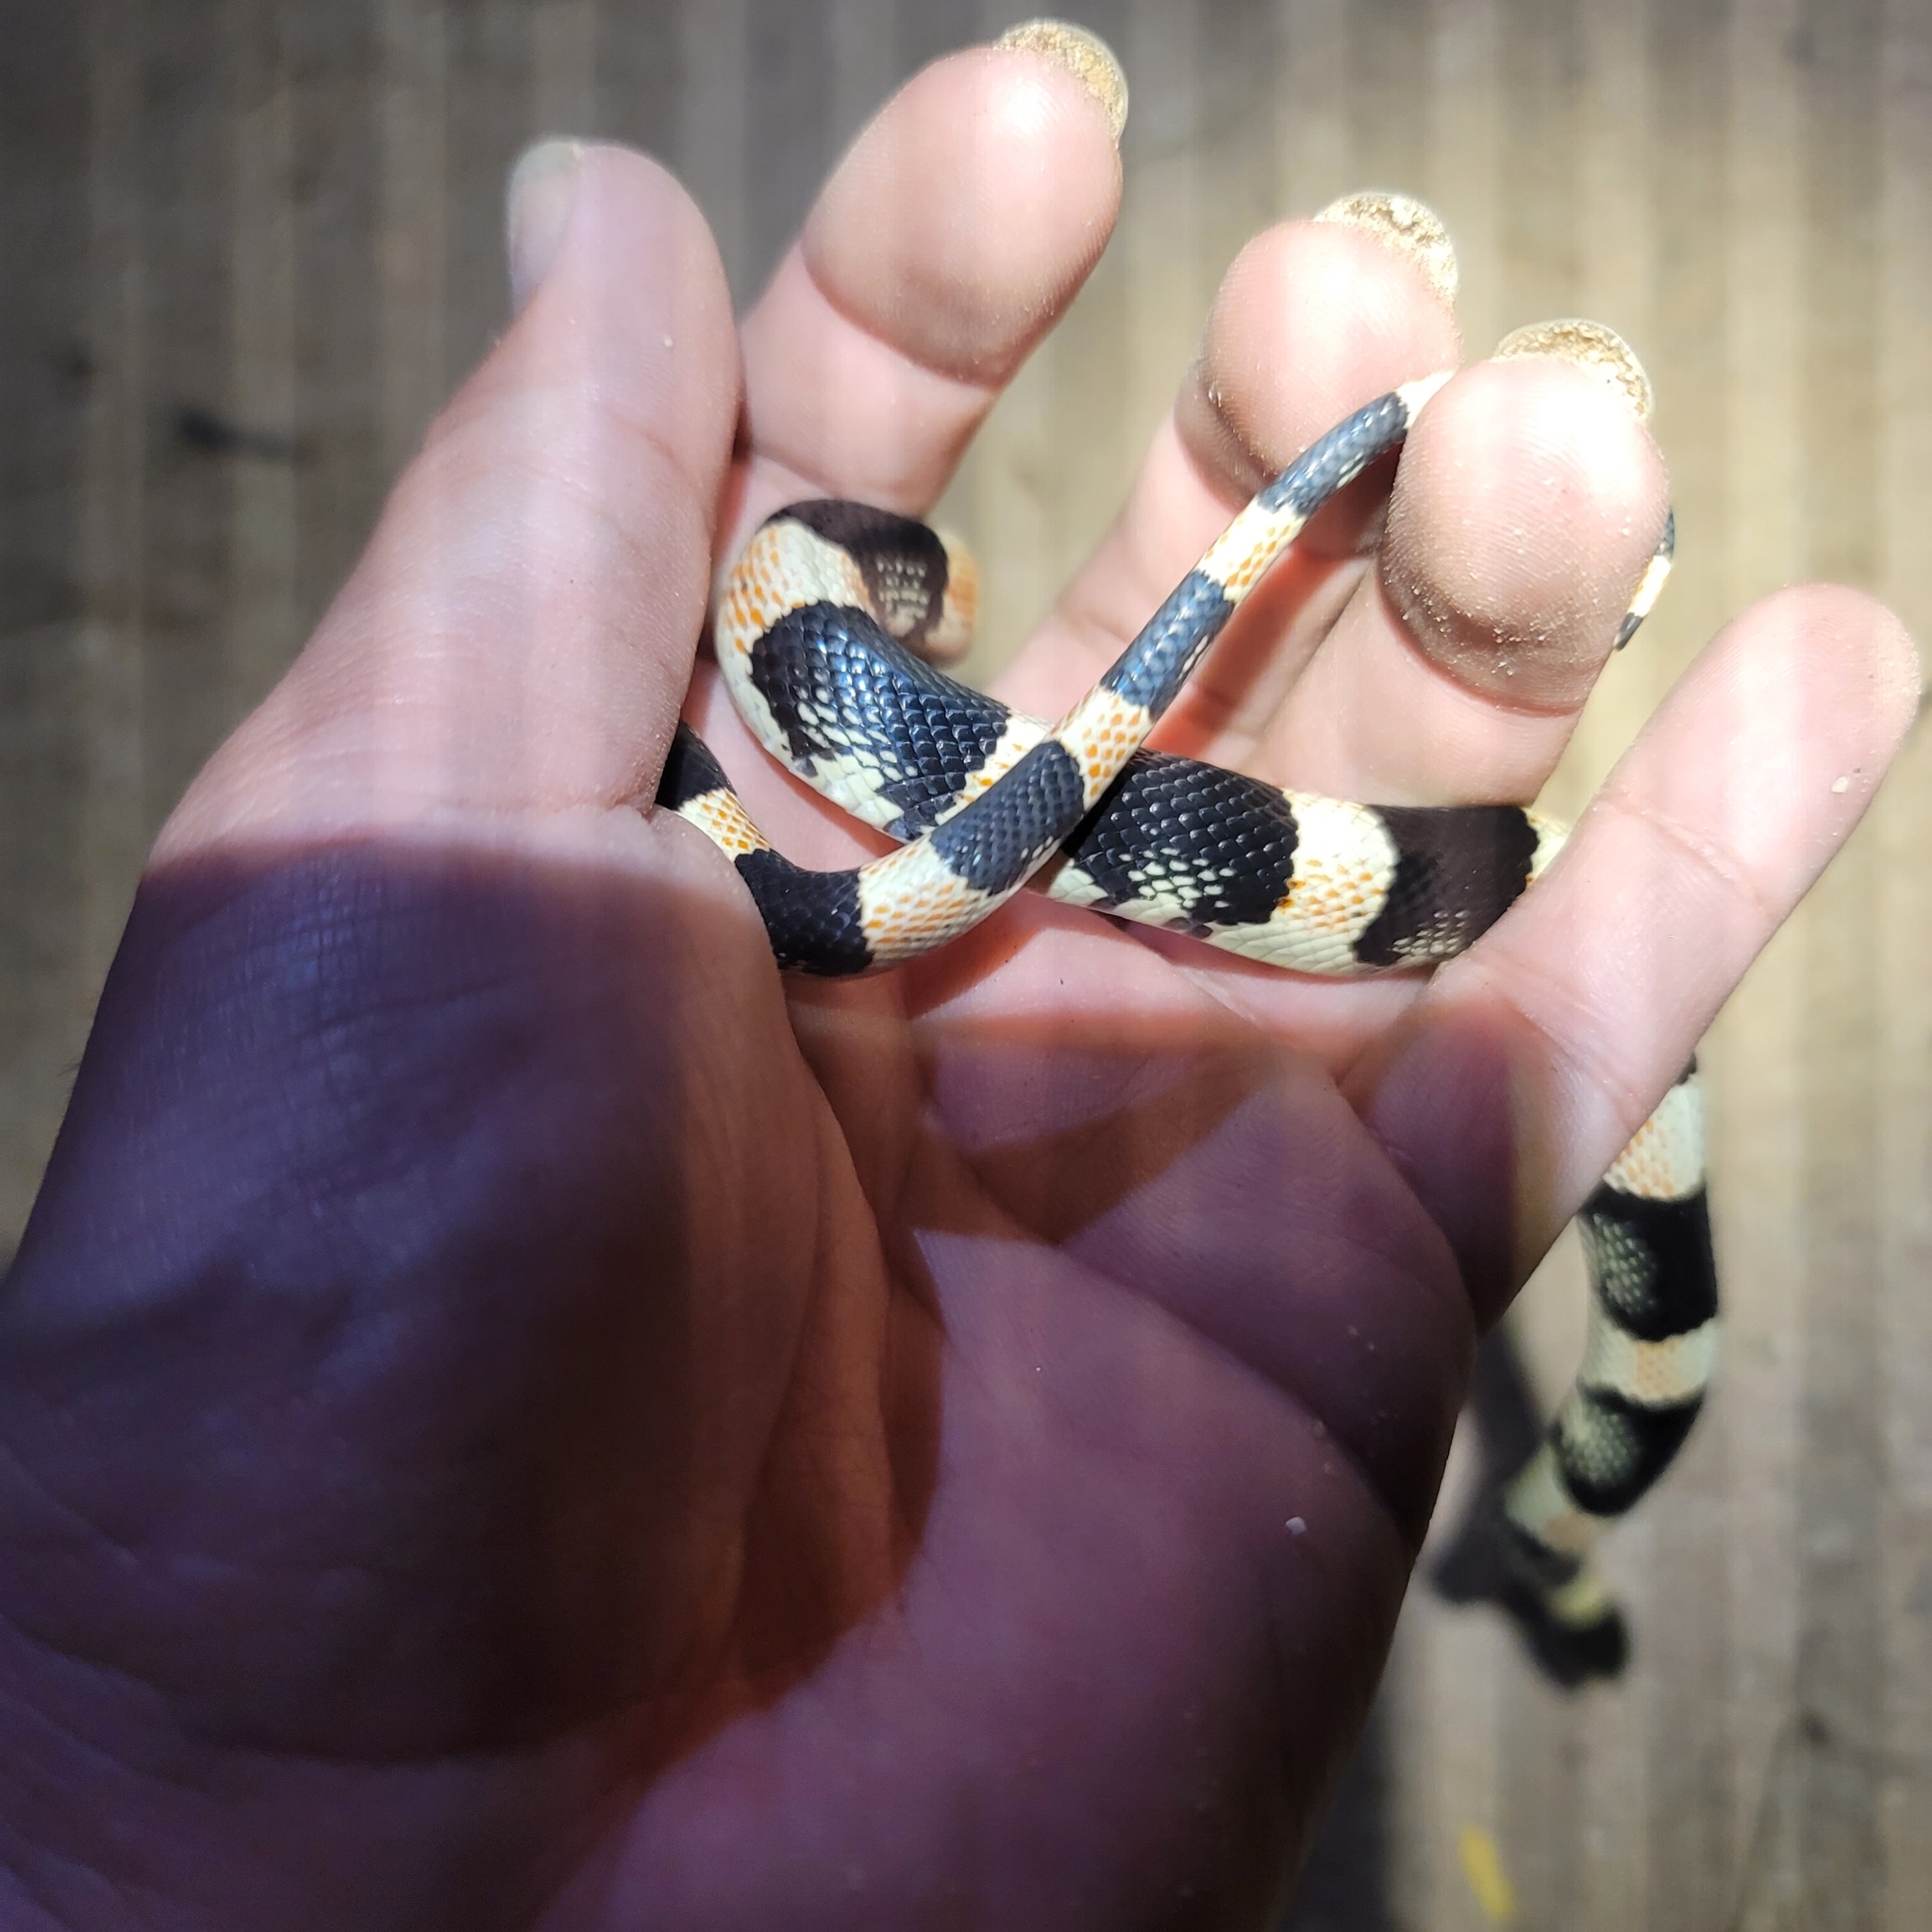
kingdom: Animalia
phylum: Chordata
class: Squamata
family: Colubridae
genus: Rhinocheilus
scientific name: Rhinocheilus lecontei
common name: Longnose snake
